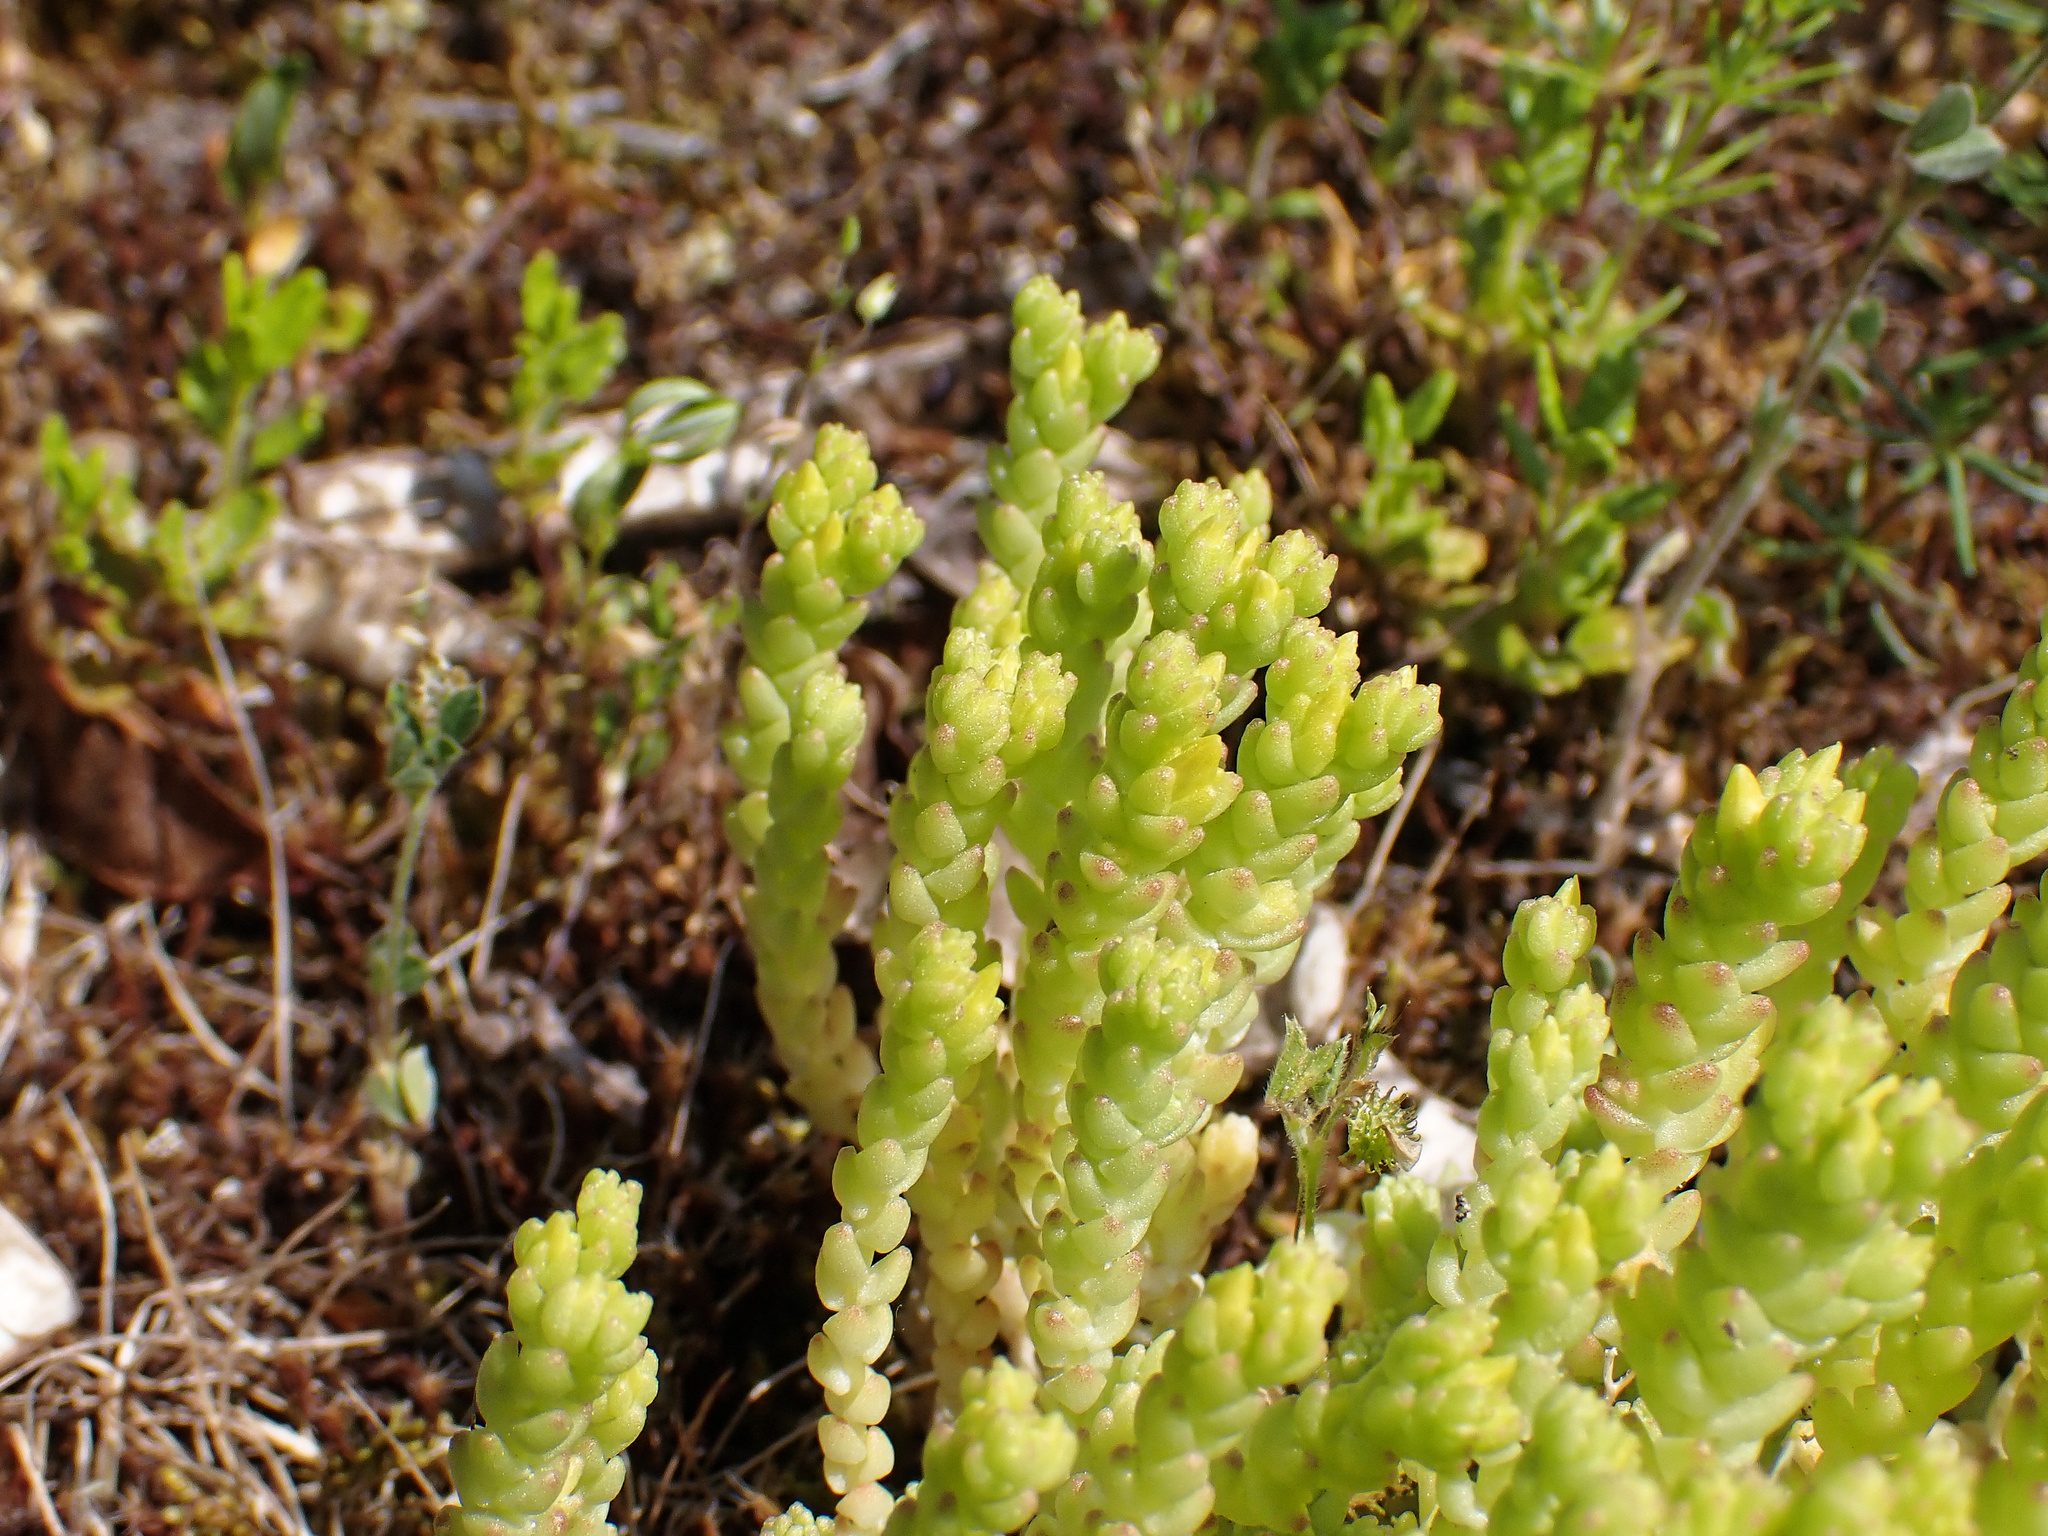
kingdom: Plantae
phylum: Tracheophyta
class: Magnoliopsida
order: Saxifragales
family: Crassulaceae
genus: Sedum
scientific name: Sedum acre
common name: Biting stonecrop
